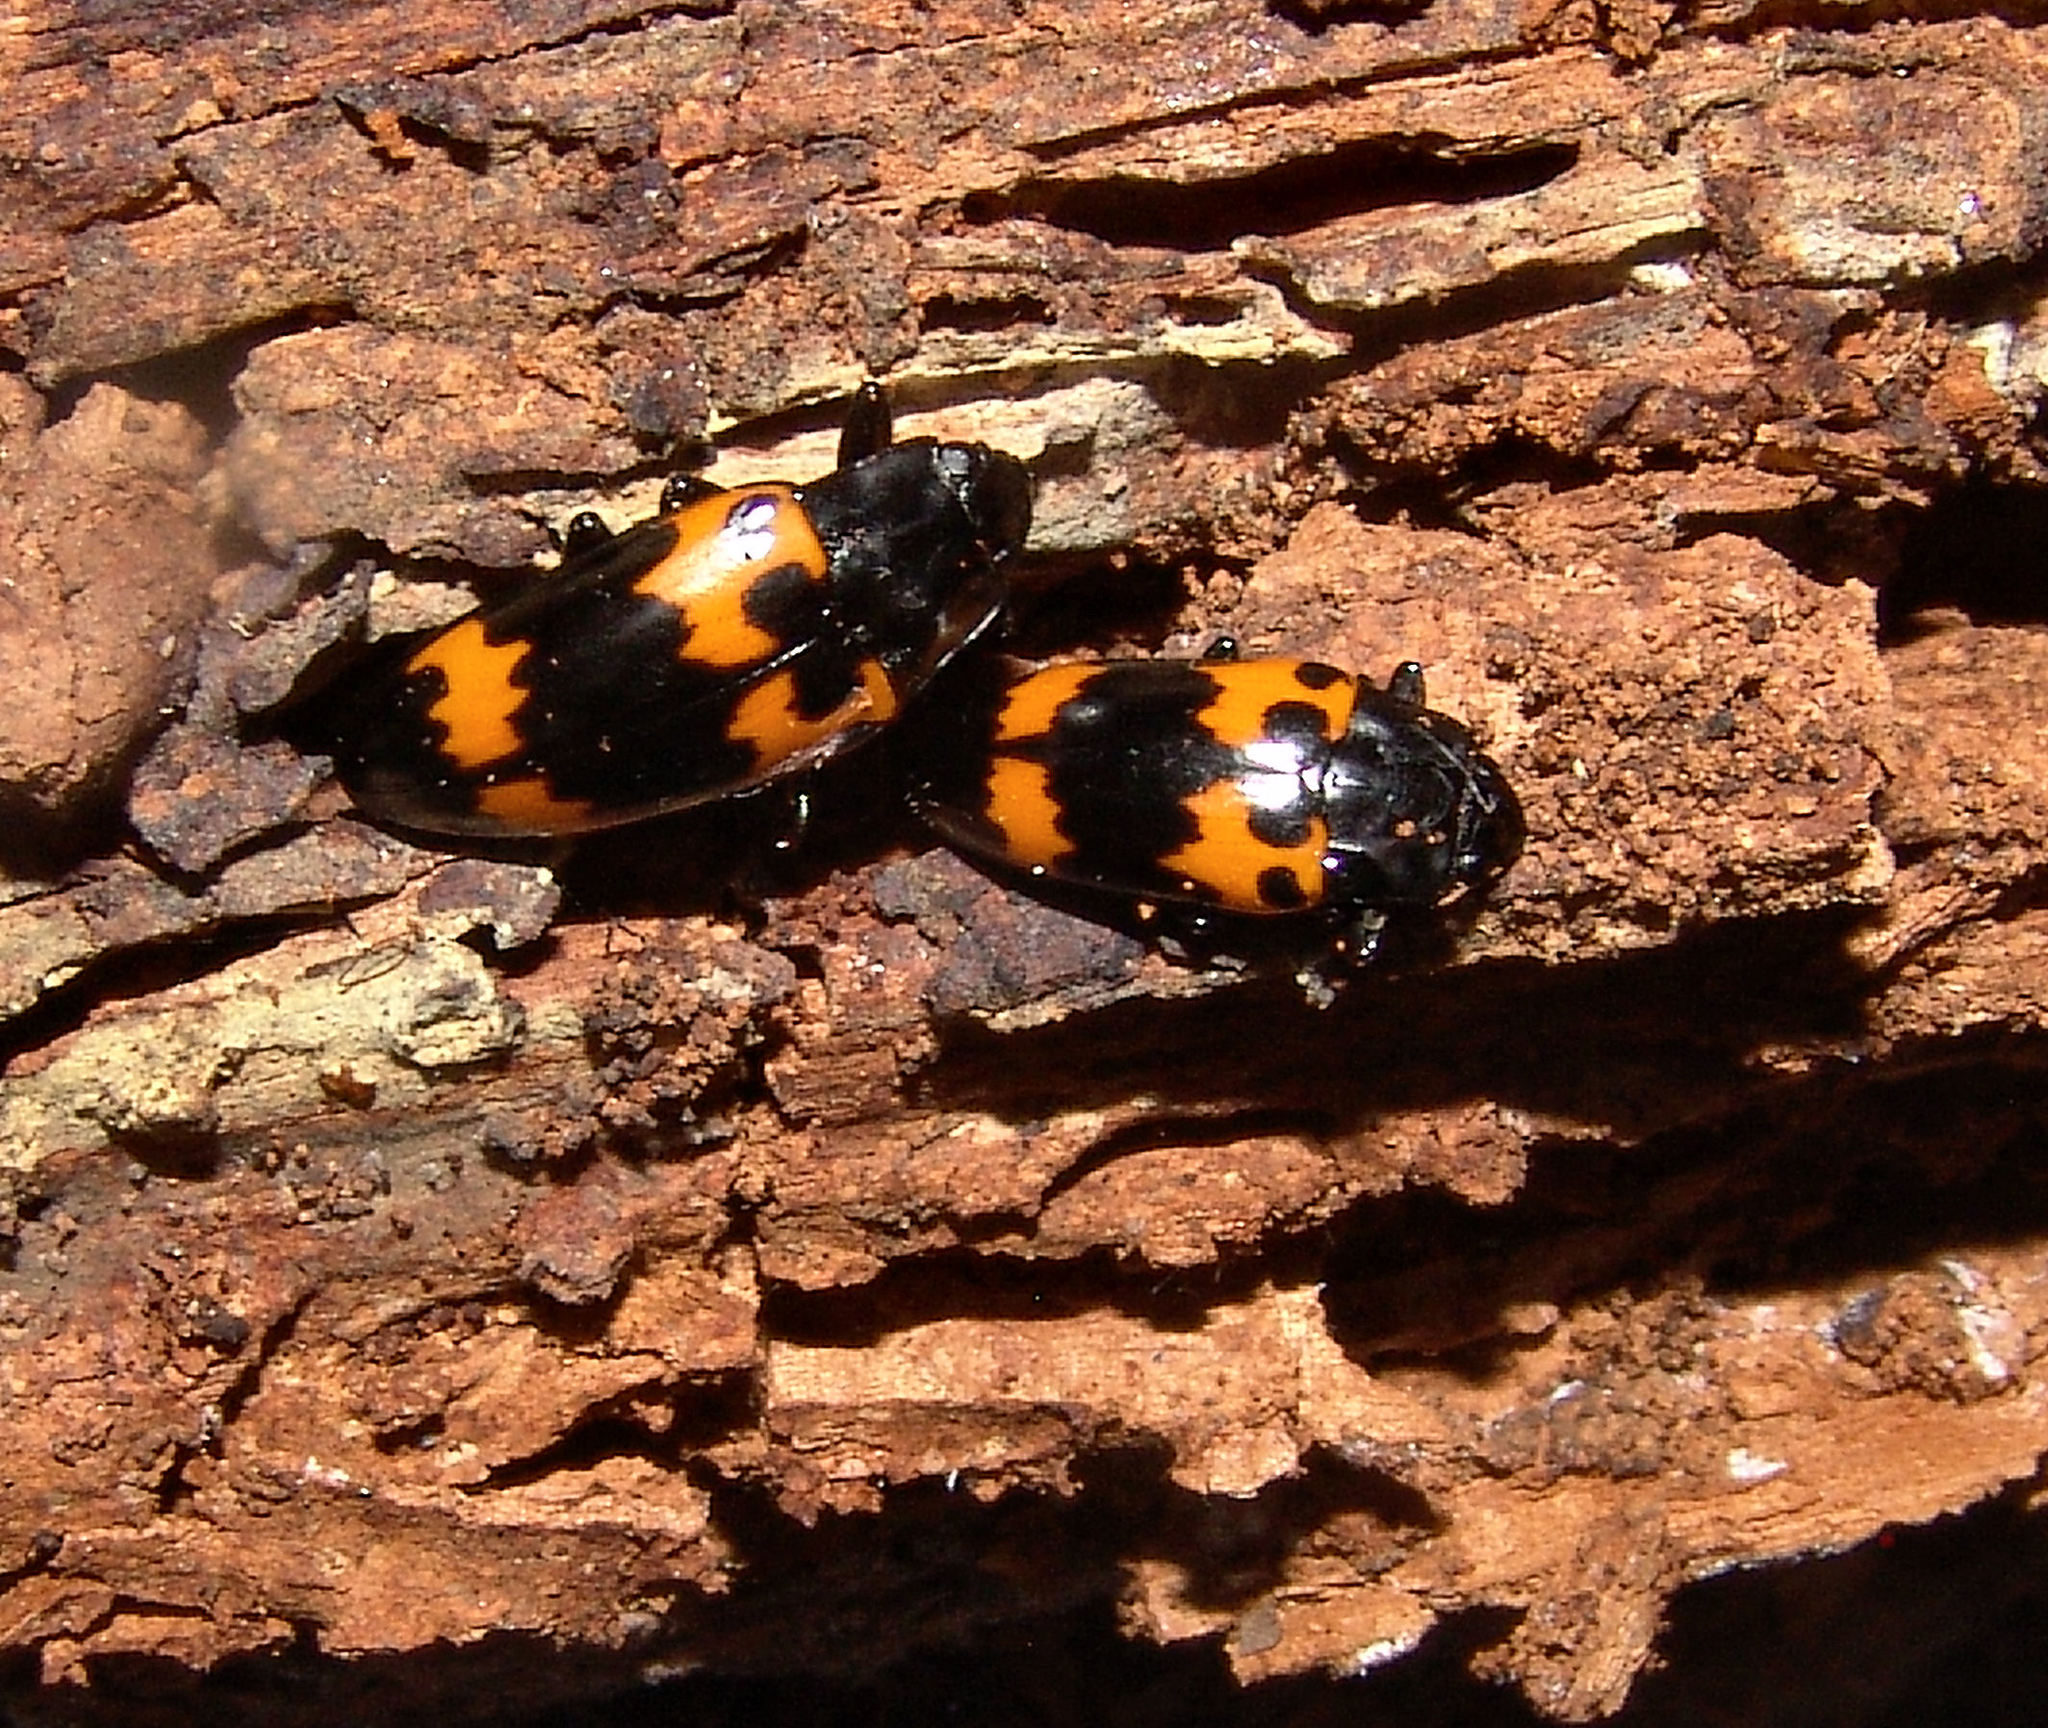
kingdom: Animalia
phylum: Arthropoda
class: Insecta
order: Coleoptera
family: Erotylidae
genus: Megalodacne
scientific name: Megalodacne heros
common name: Pleasing fungus beetle
